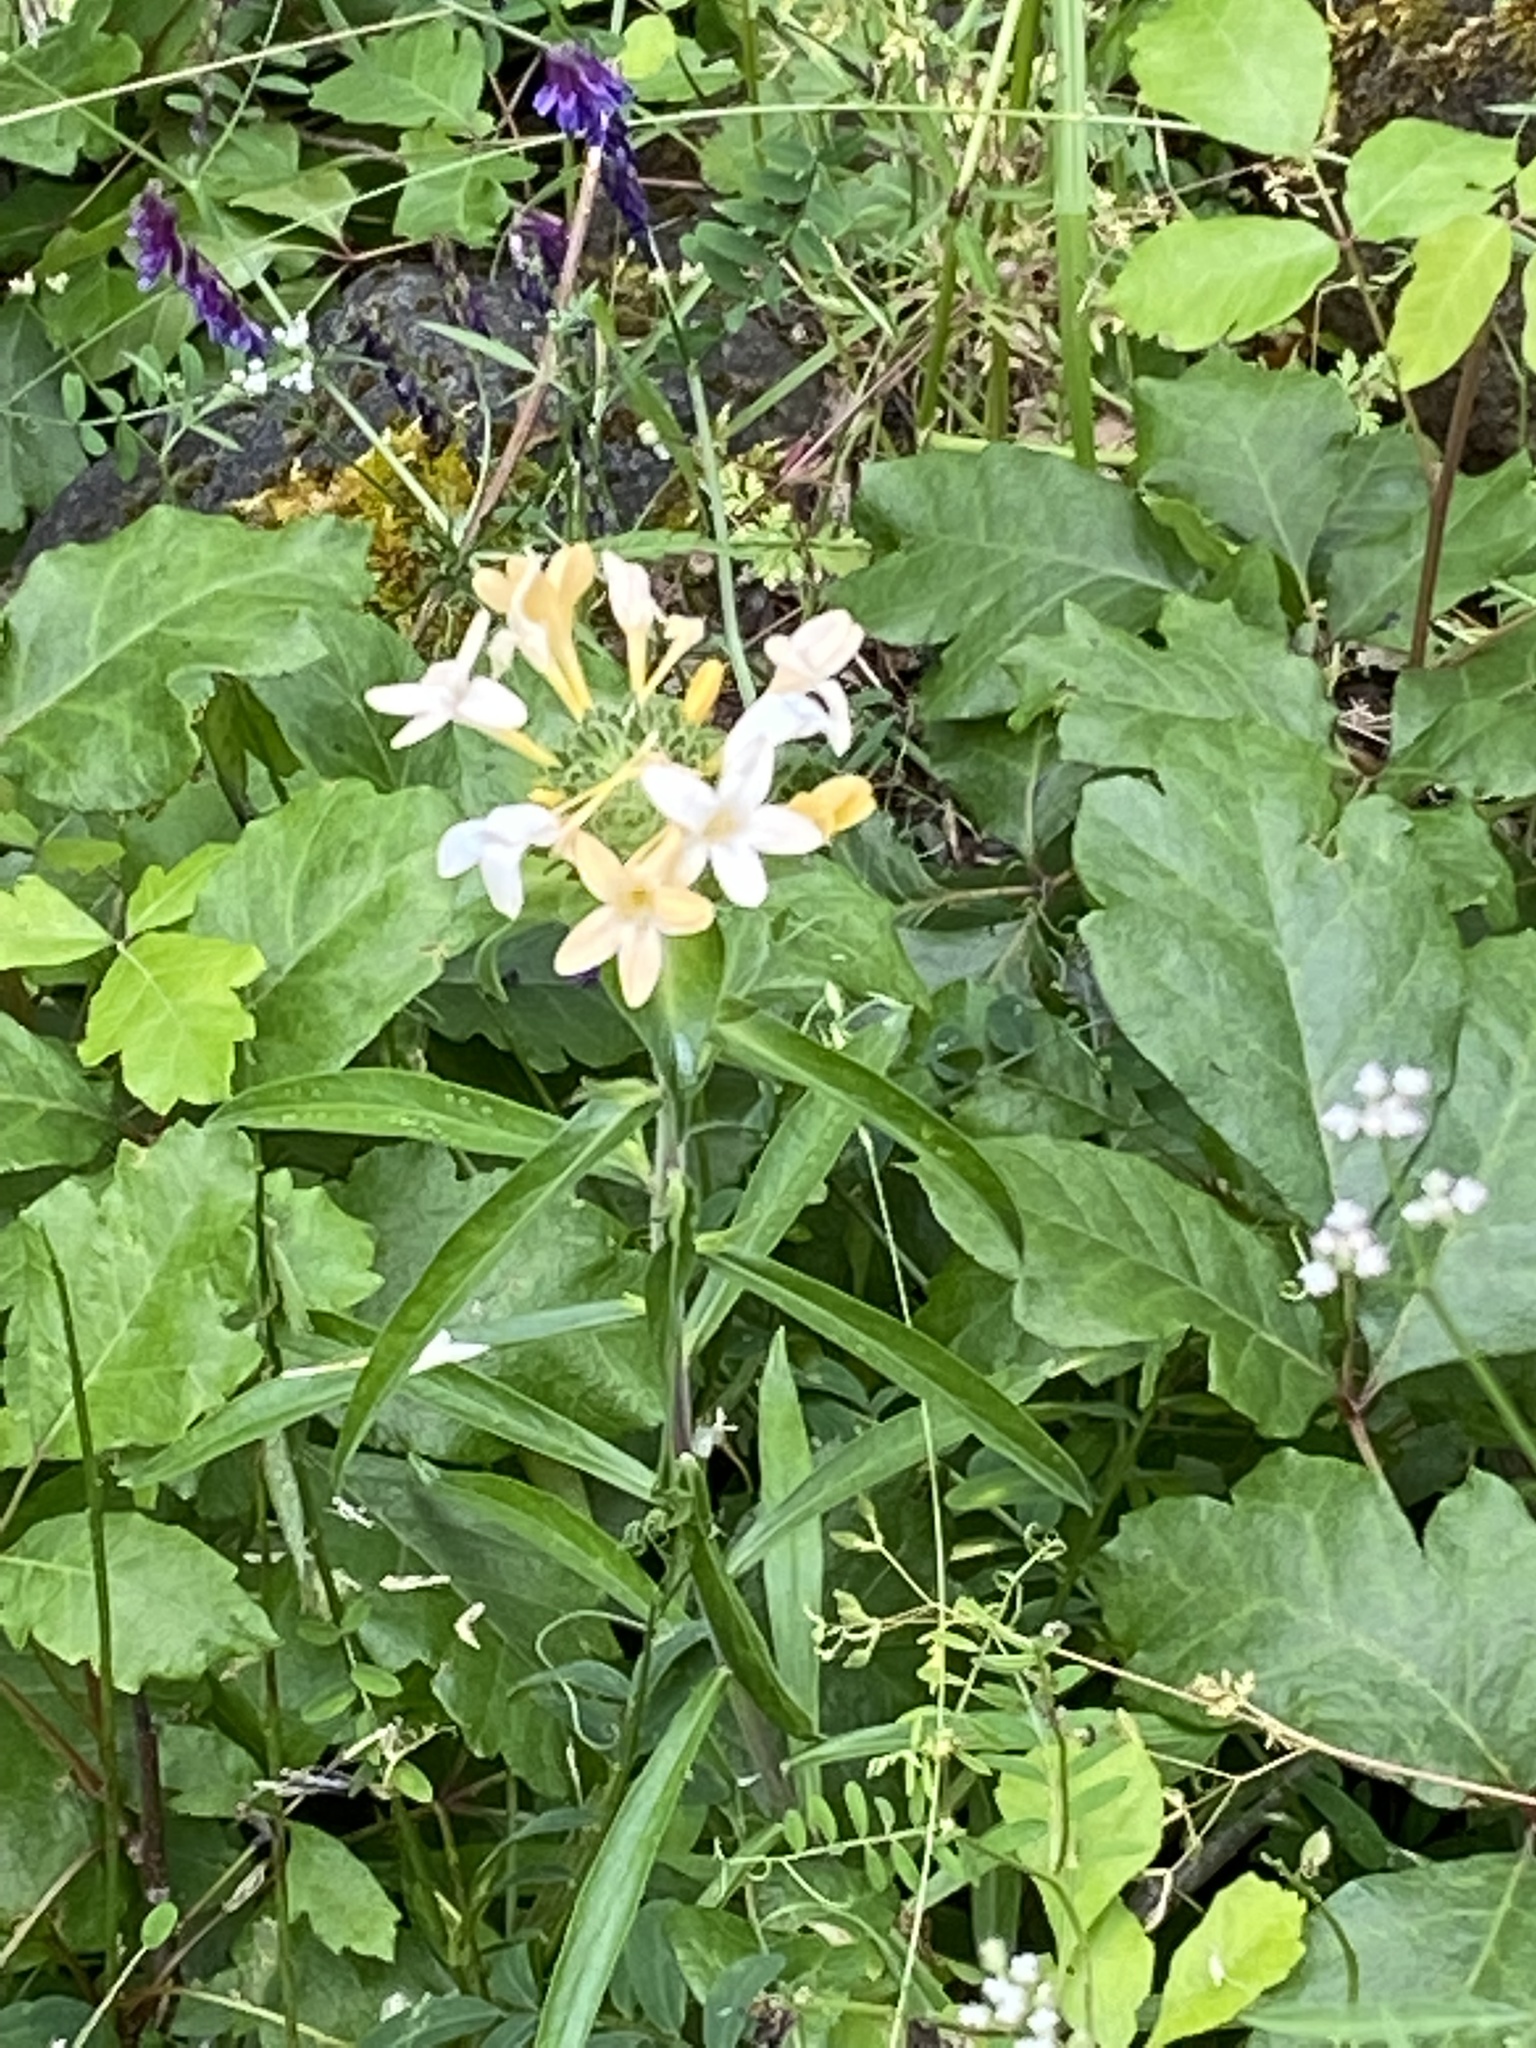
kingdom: Plantae
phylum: Tracheophyta
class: Magnoliopsida
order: Ericales
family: Polemoniaceae
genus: Collomia
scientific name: Collomia grandiflora
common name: California strawflower
